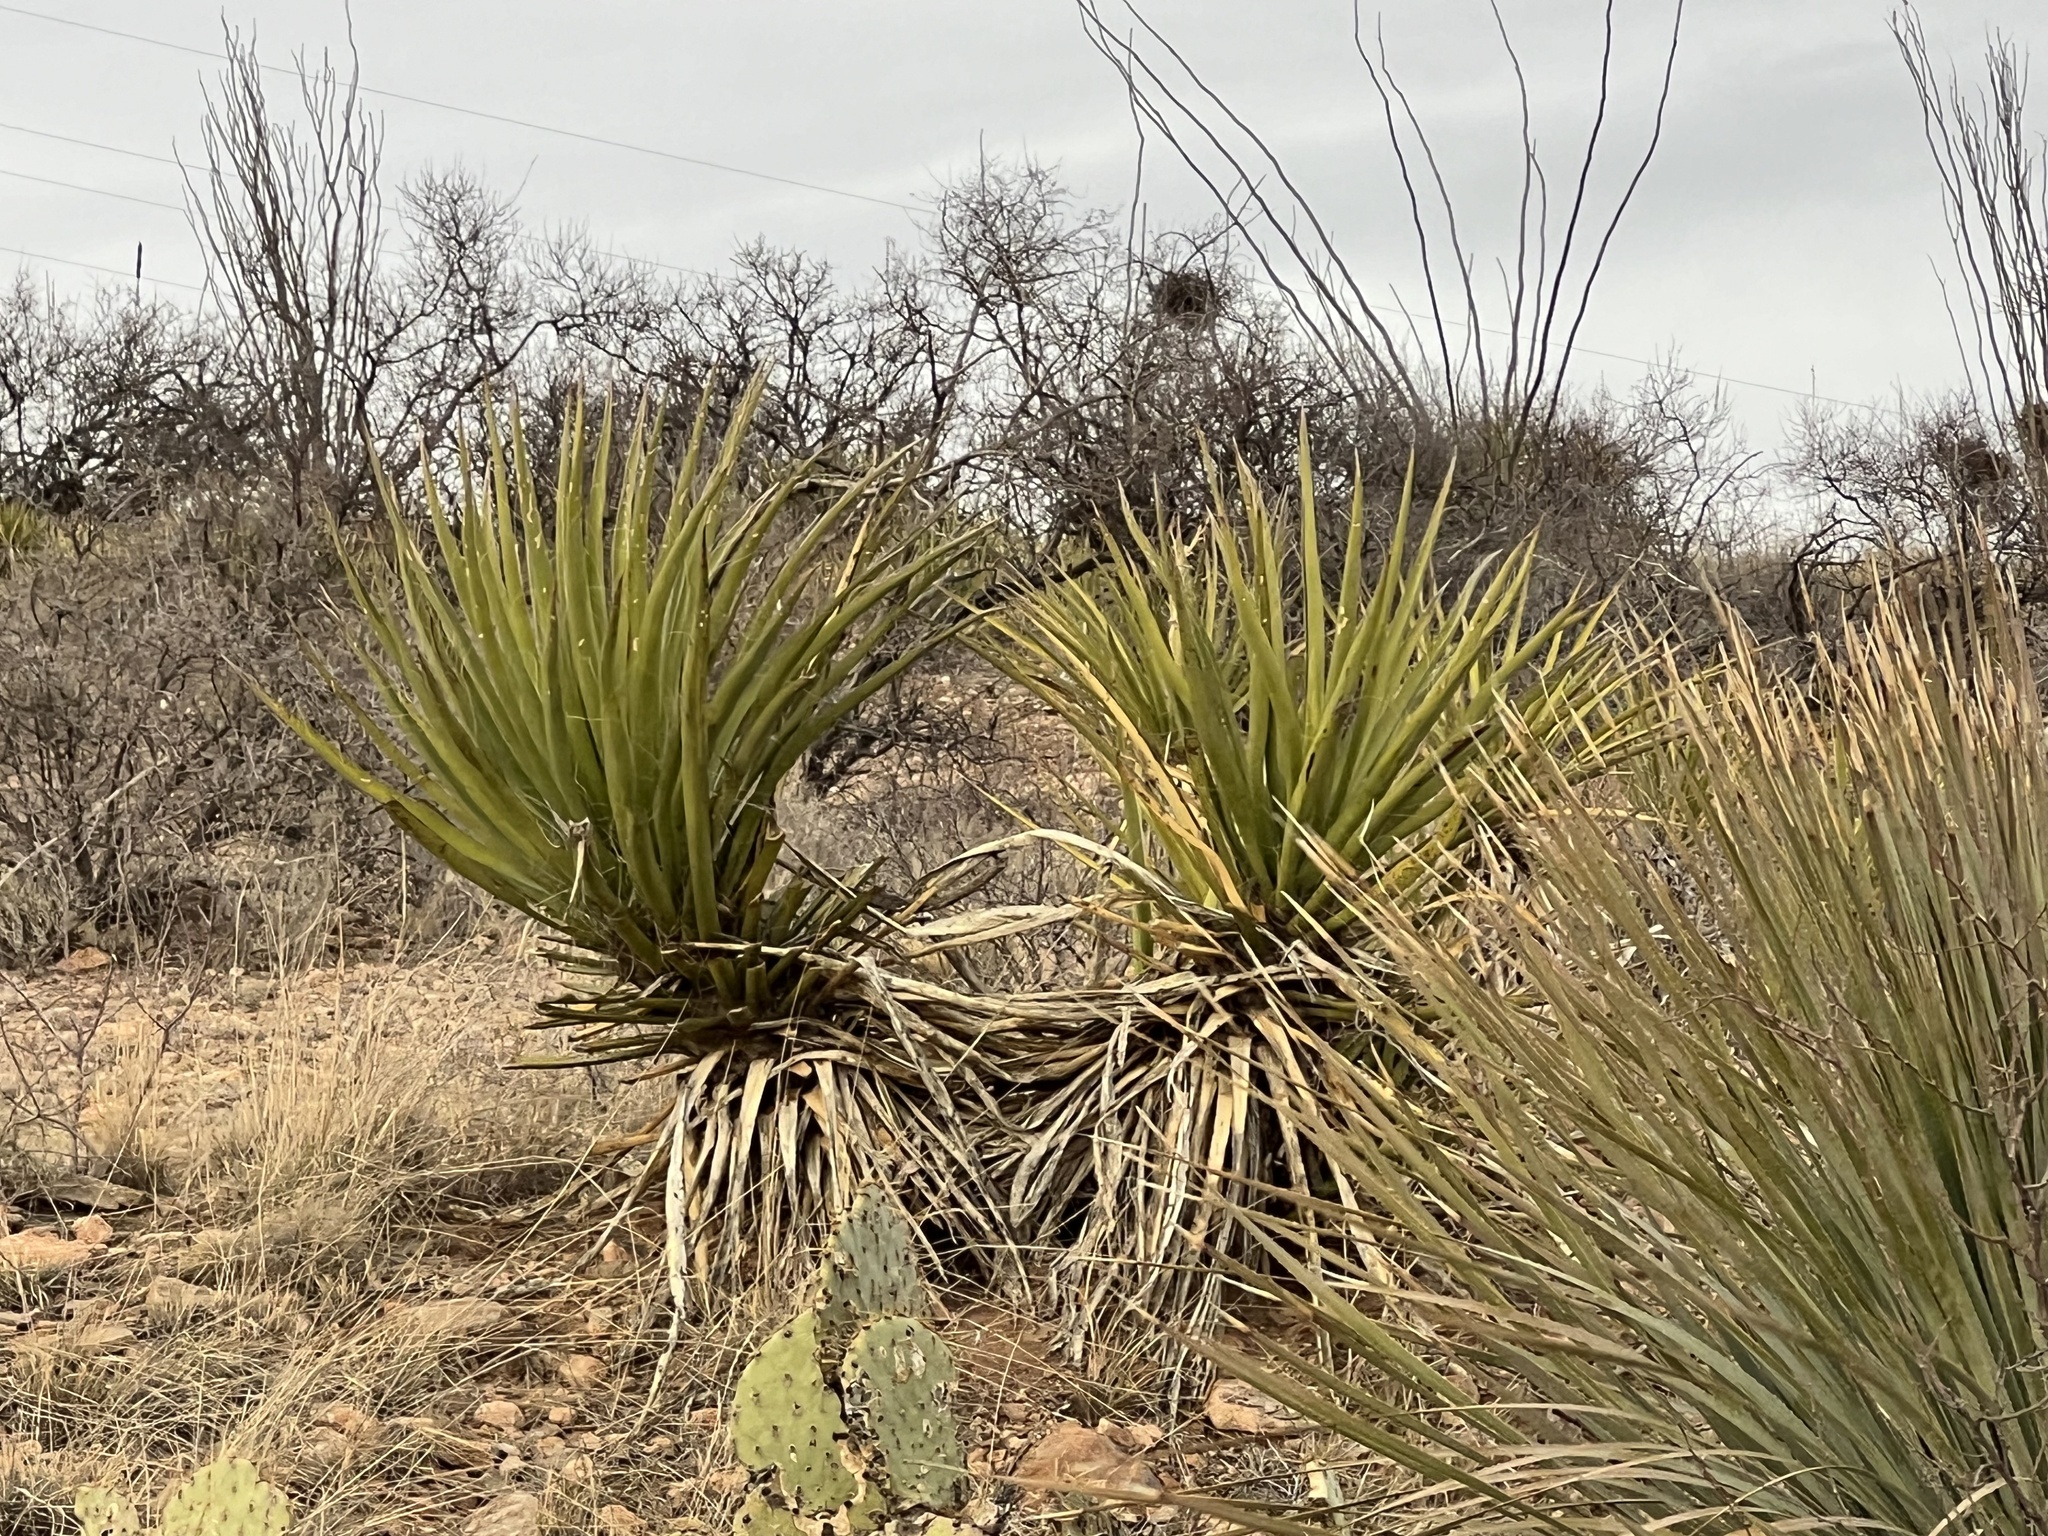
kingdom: Plantae
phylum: Tracheophyta
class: Liliopsida
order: Asparagales
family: Asparagaceae
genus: Yucca
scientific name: Yucca baccata
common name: Banana yucca
